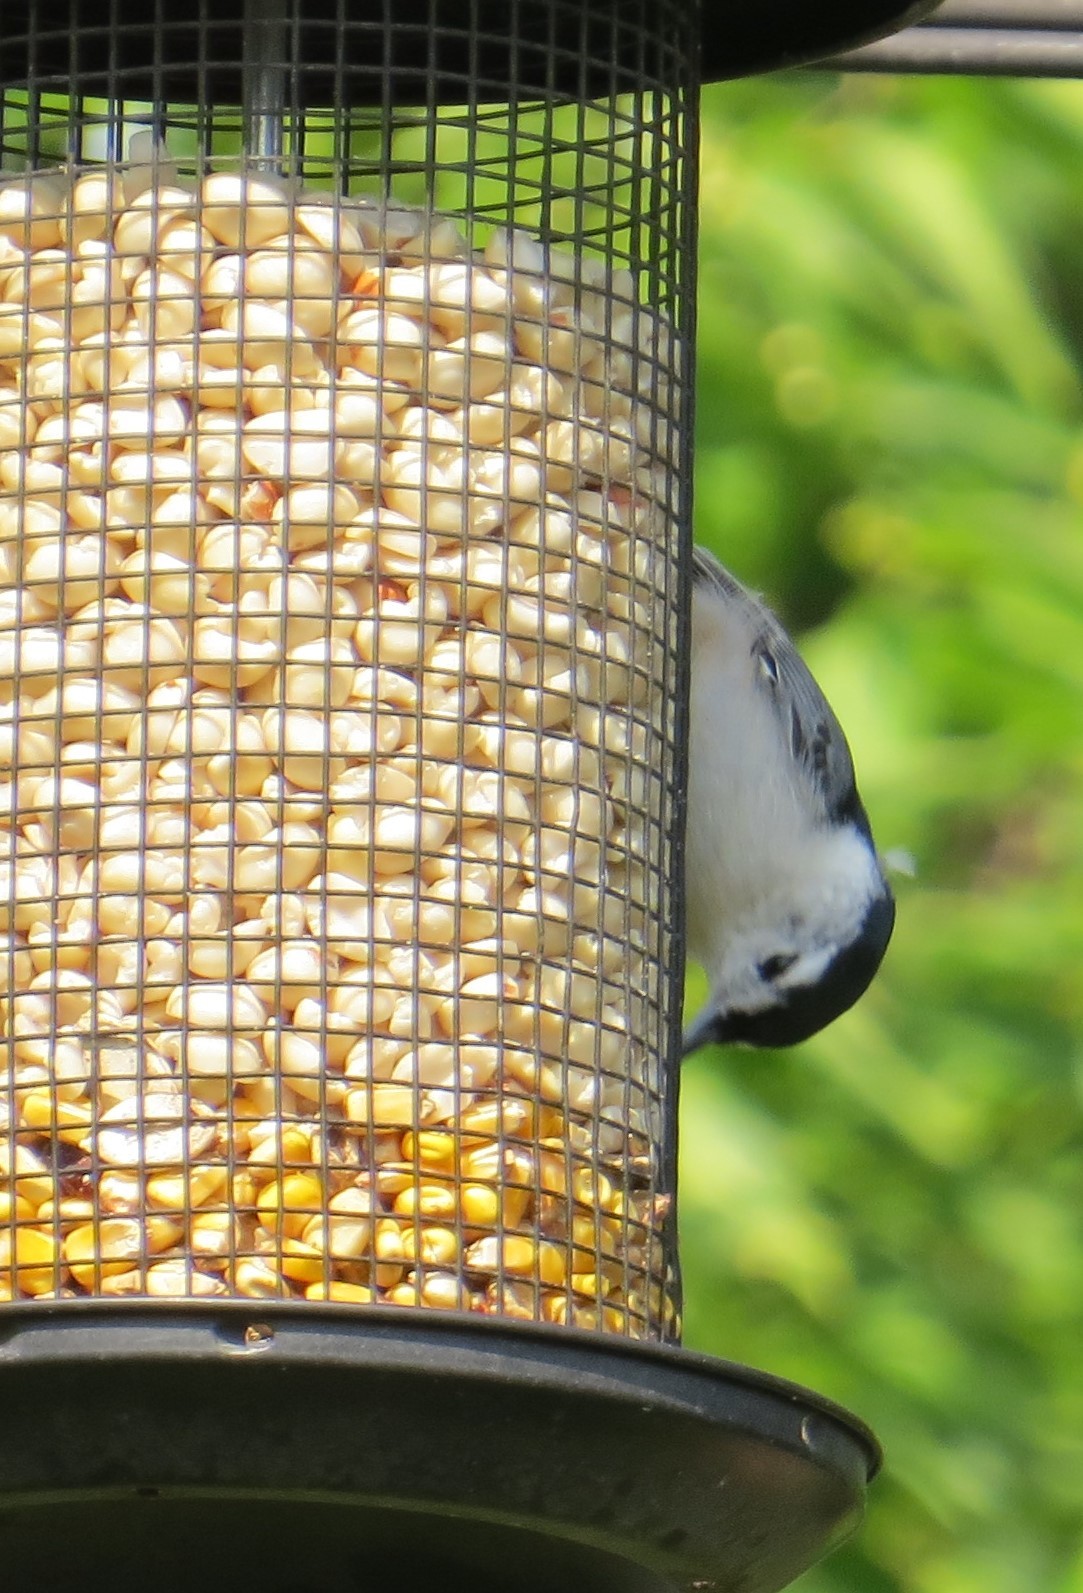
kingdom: Animalia
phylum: Chordata
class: Aves
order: Passeriformes
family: Sittidae
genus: Sitta
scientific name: Sitta carolinensis
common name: White-breasted nuthatch
